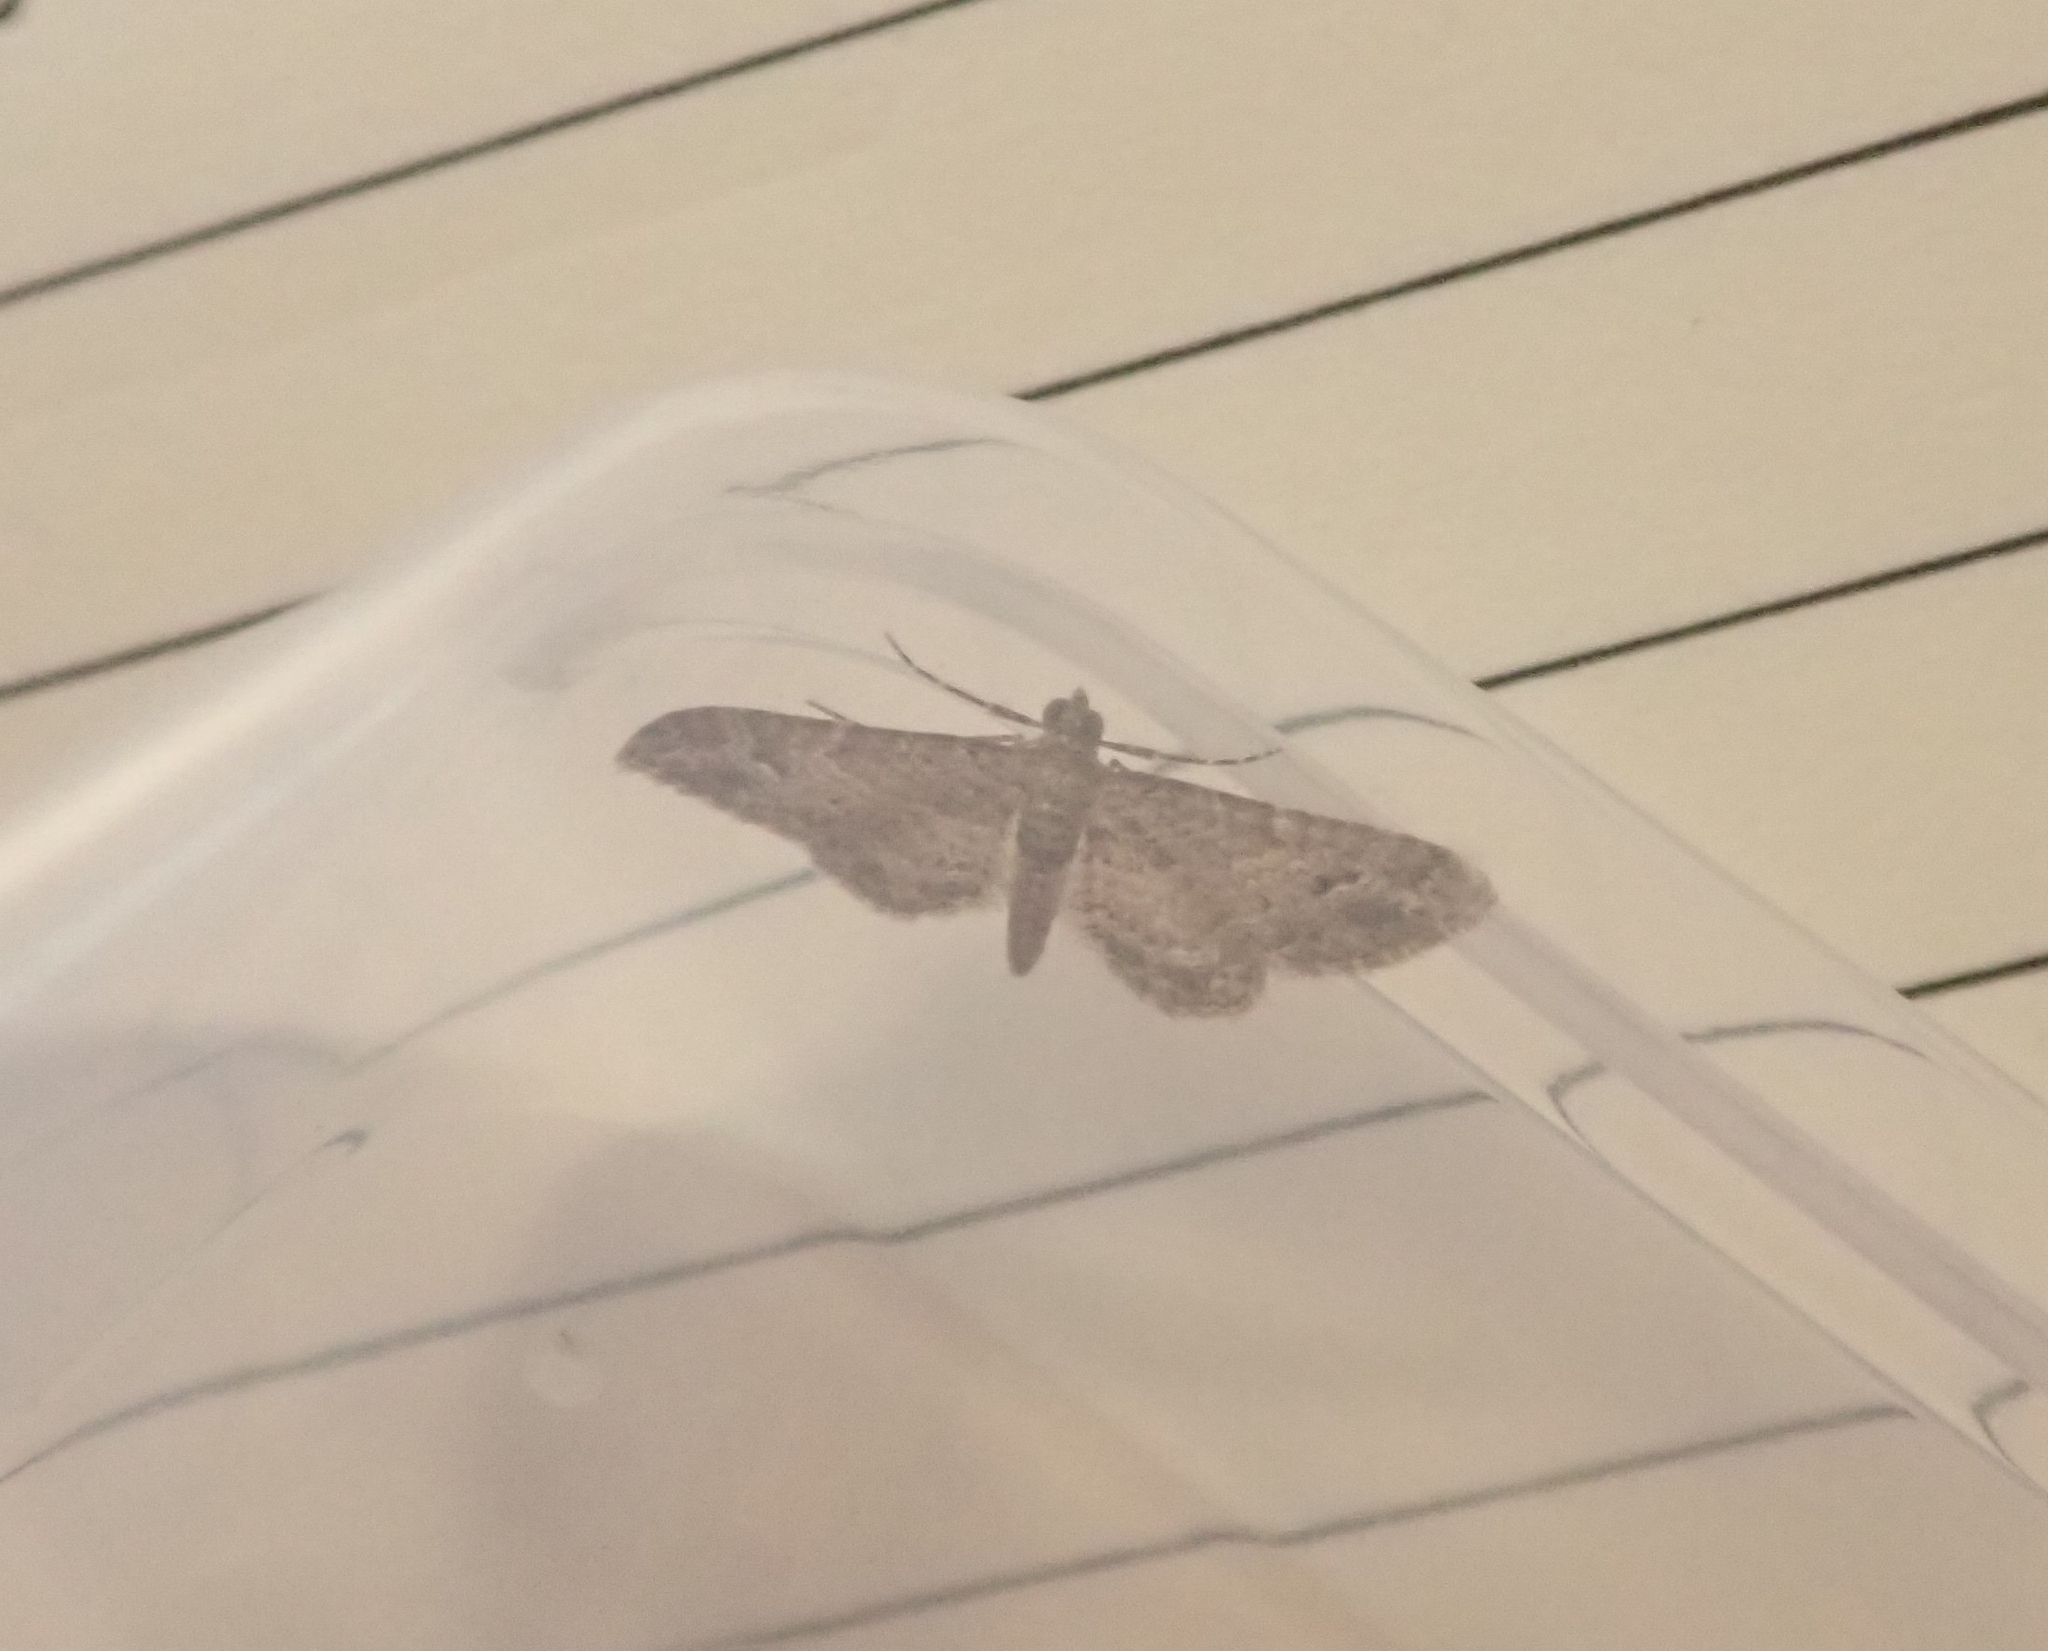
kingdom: Animalia
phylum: Arthropoda
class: Insecta
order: Lepidoptera
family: Geometridae
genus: Gymnoscelis
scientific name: Gymnoscelis rufifasciata
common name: Double-striped pug
